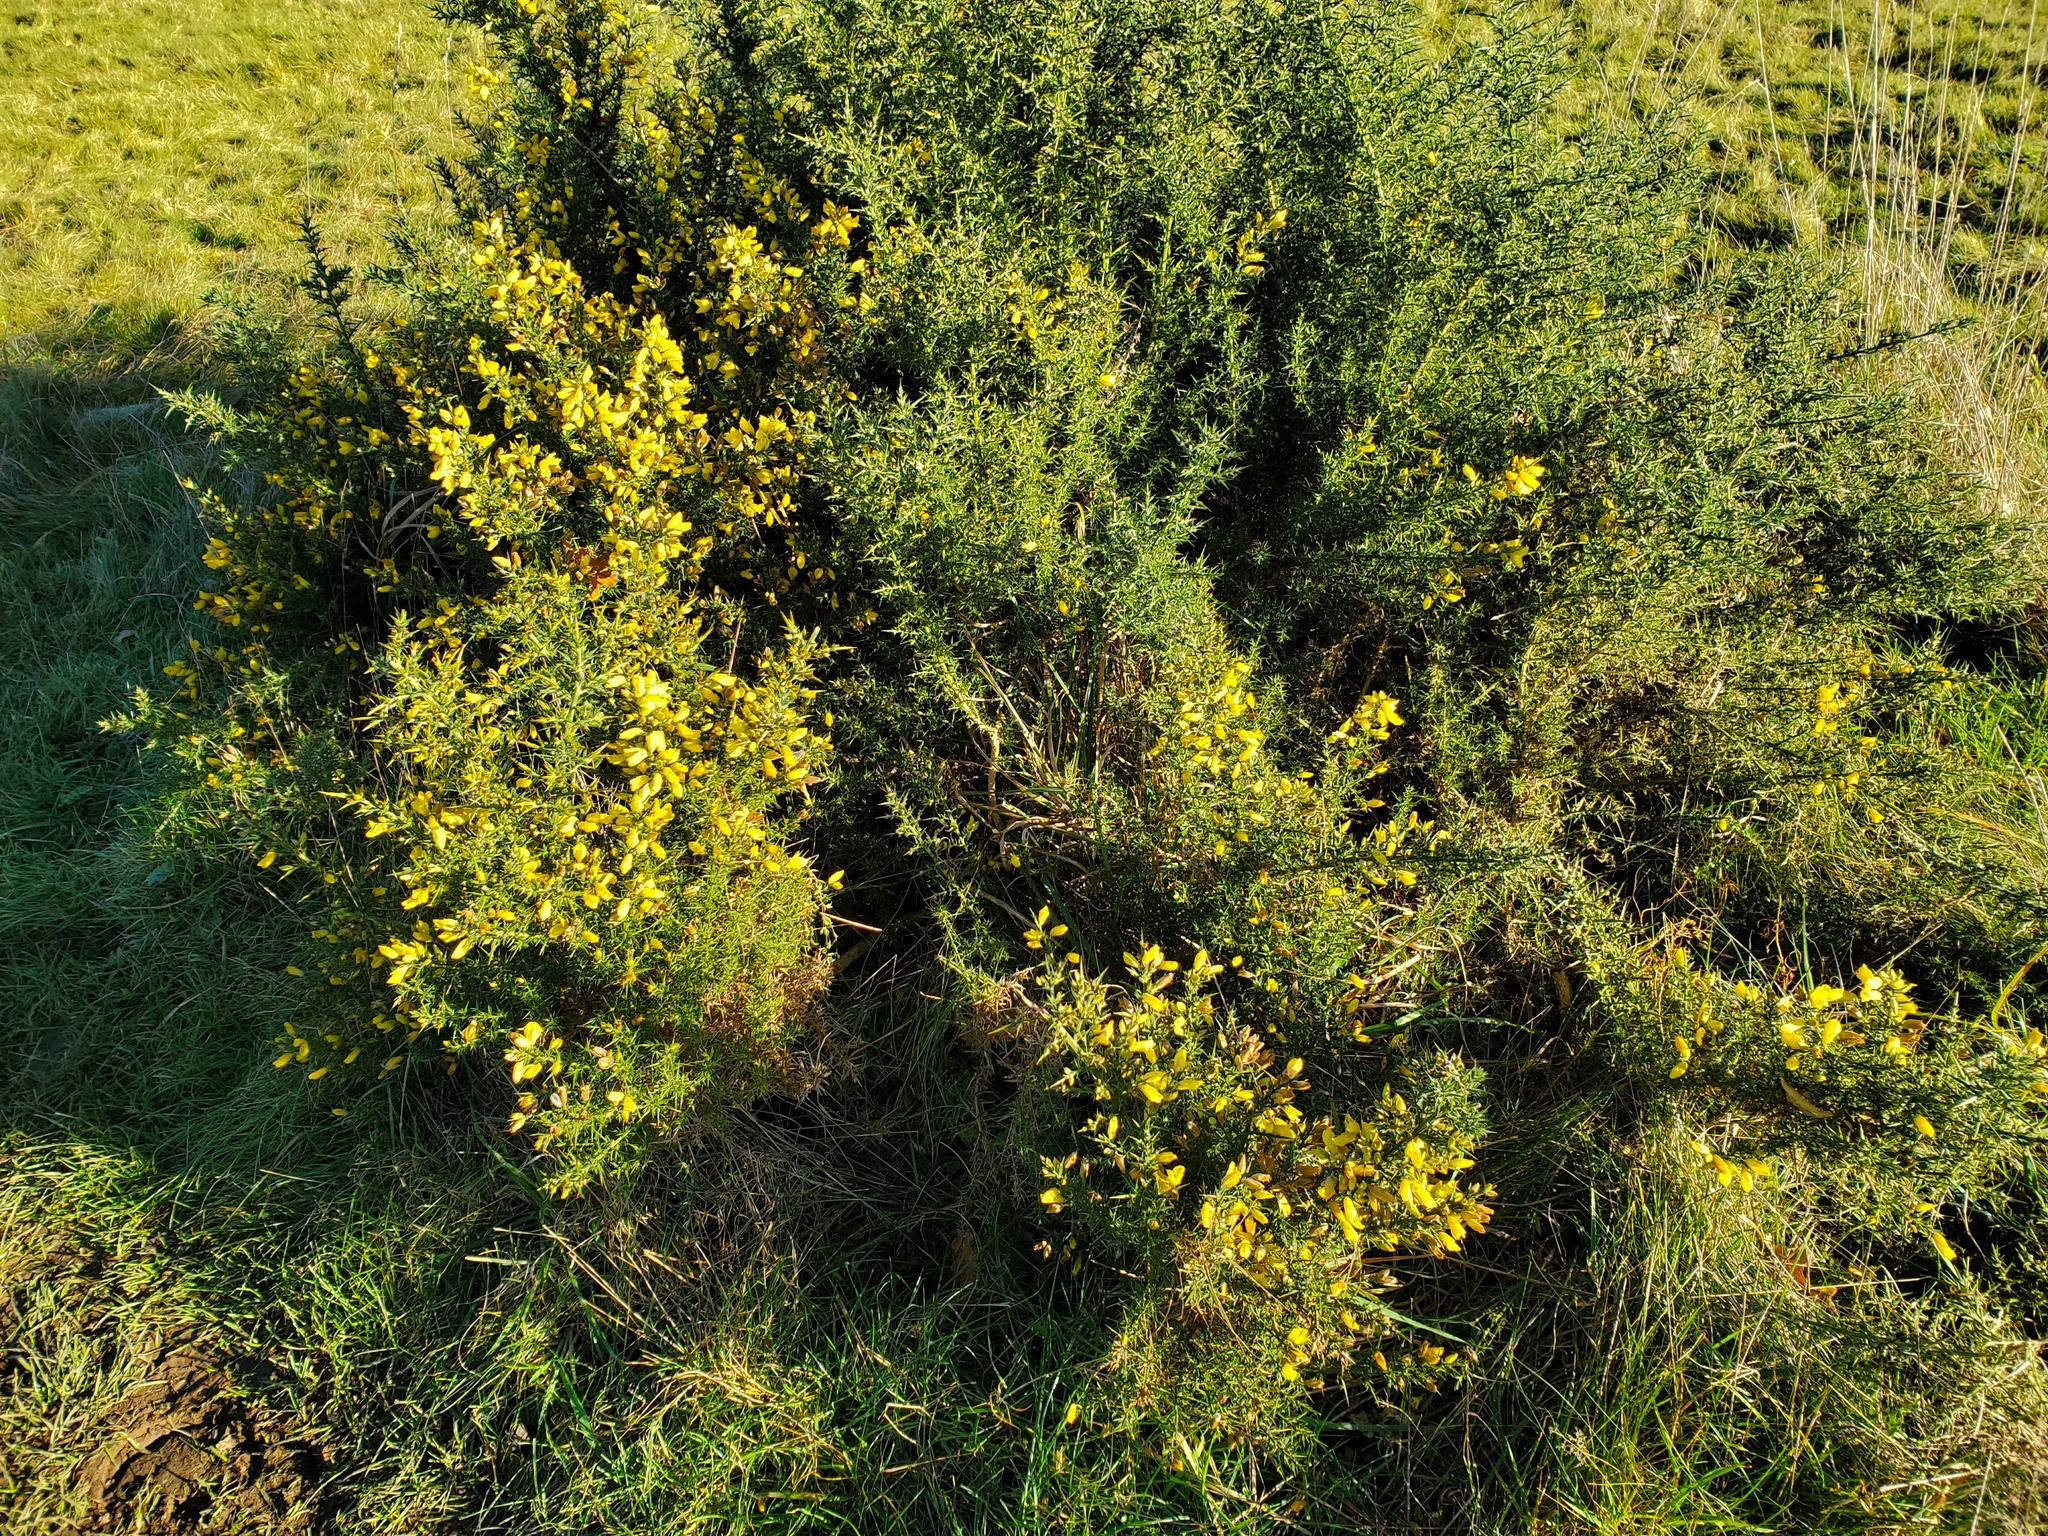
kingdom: Plantae
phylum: Tracheophyta
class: Magnoliopsida
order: Fabales
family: Fabaceae
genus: Ulex
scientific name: Ulex europaeus
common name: Common gorse
